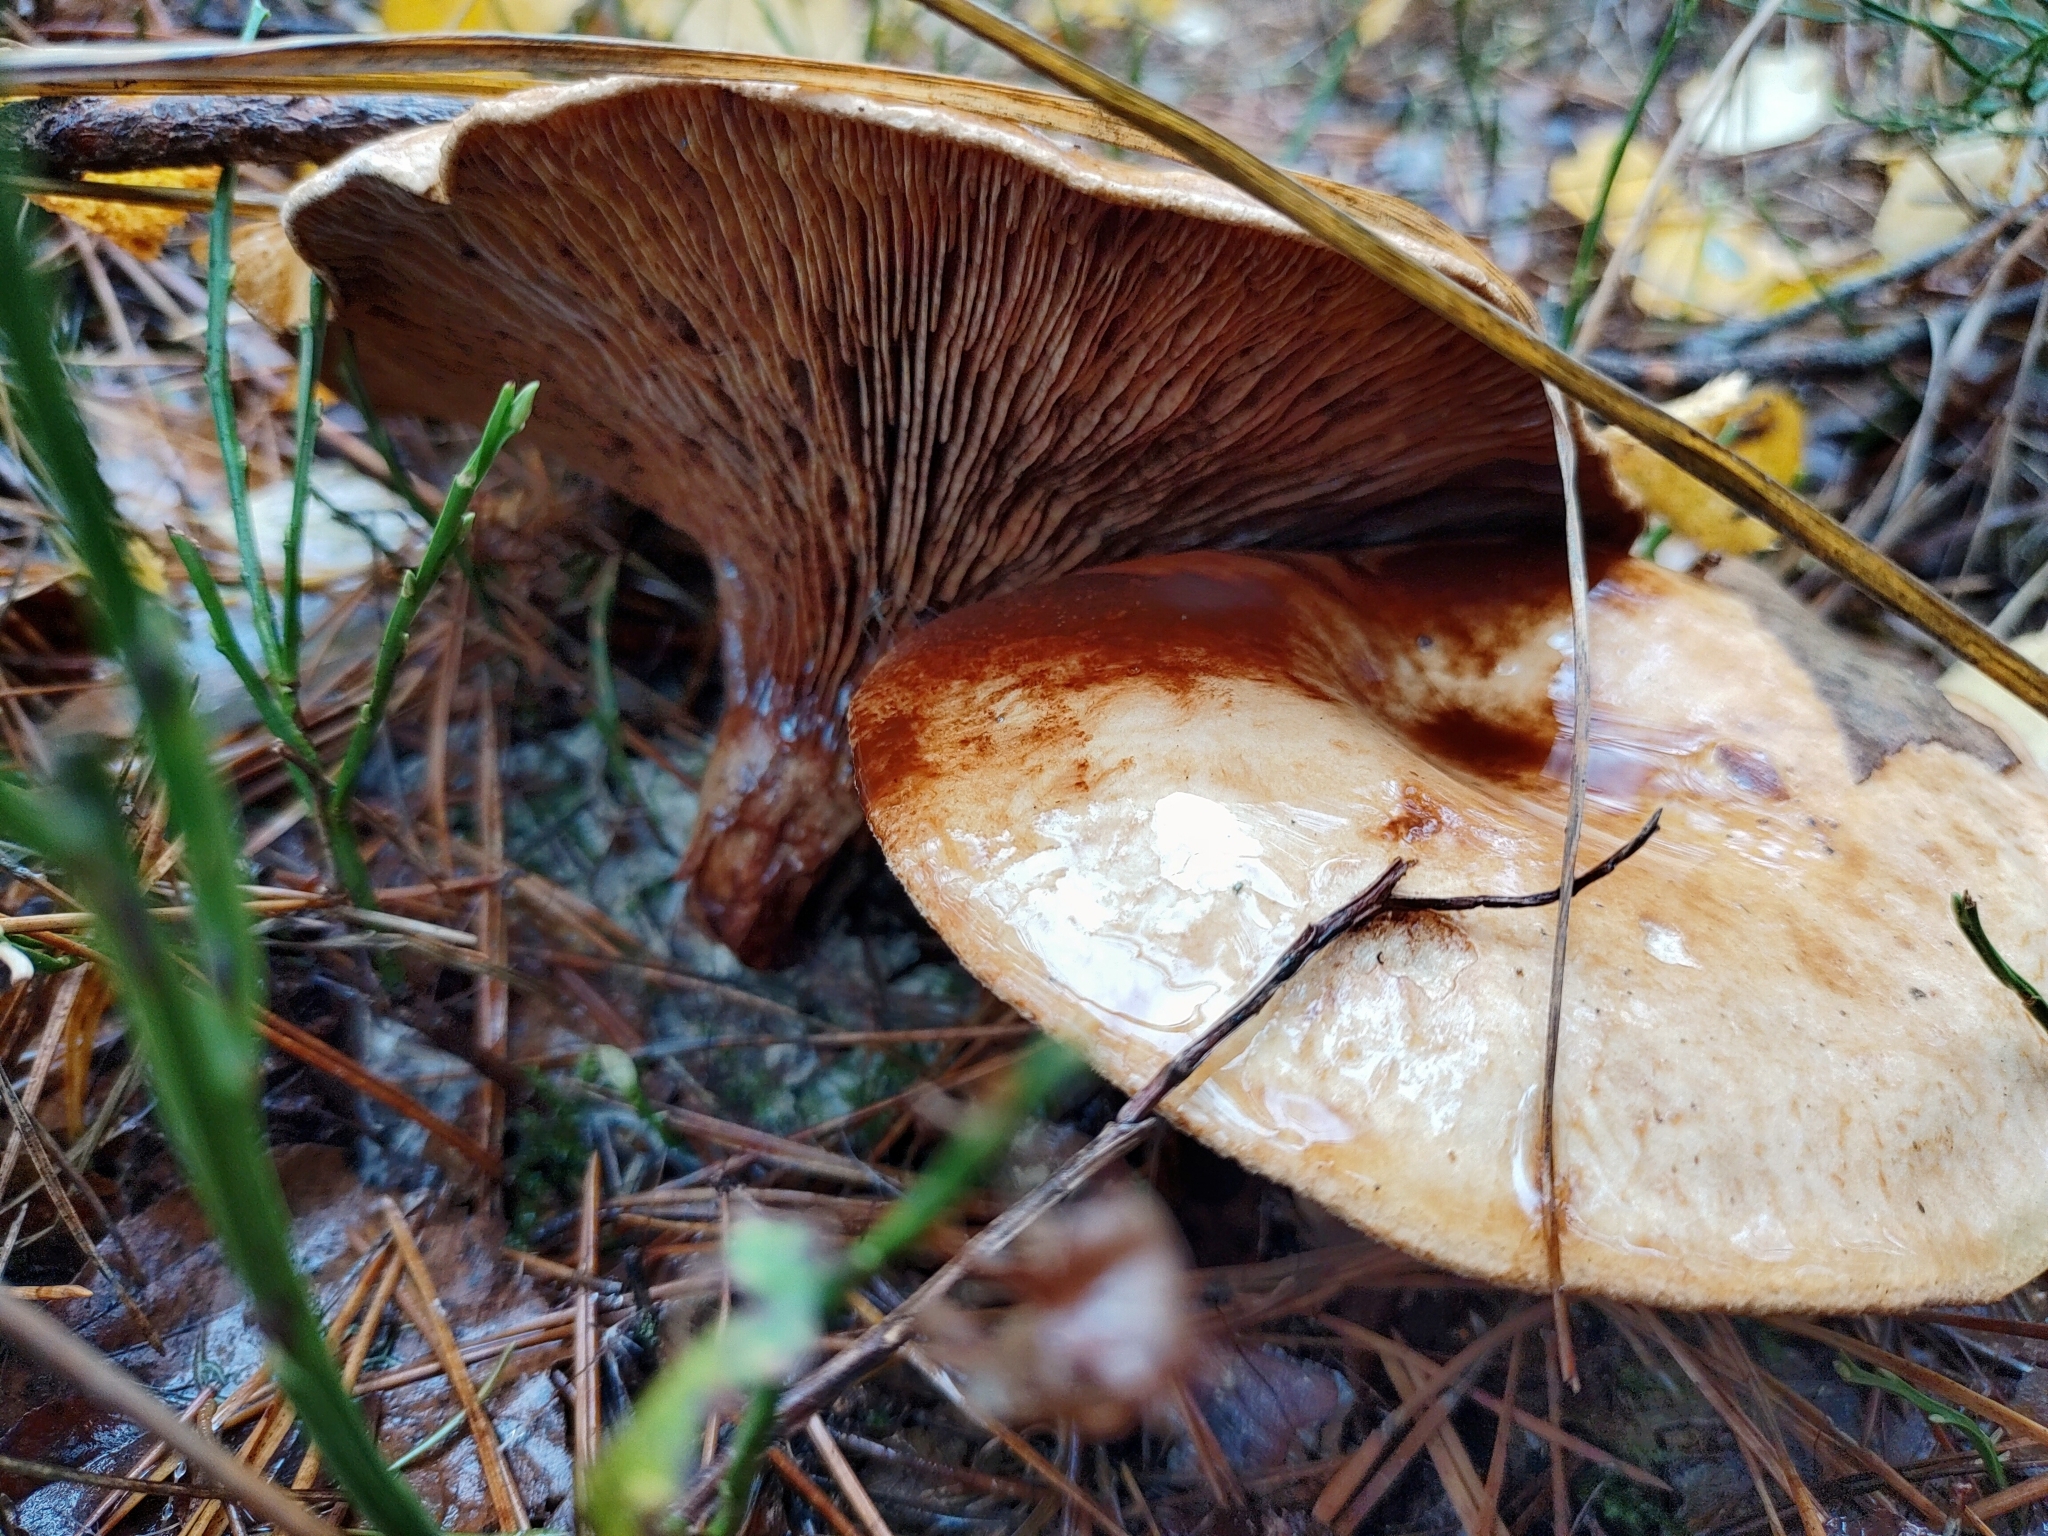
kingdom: Fungi
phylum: Basidiomycota
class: Agaricomycetes
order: Boletales
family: Paxillaceae
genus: Paxillus
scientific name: Paxillus involutus
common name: Brown roll rim
